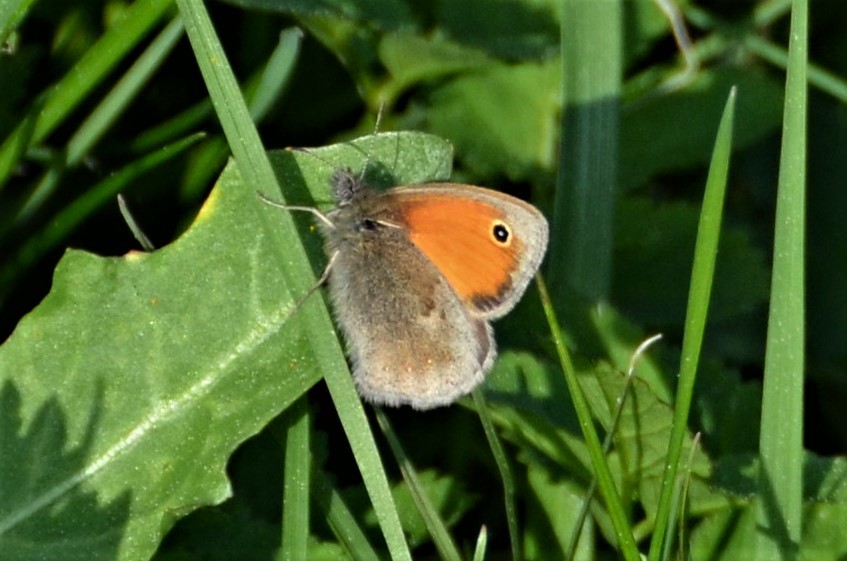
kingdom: Animalia
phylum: Arthropoda
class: Insecta
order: Lepidoptera
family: Nymphalidae
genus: Coenonympha
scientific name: Coenonympha pamphilus
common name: Small heath
